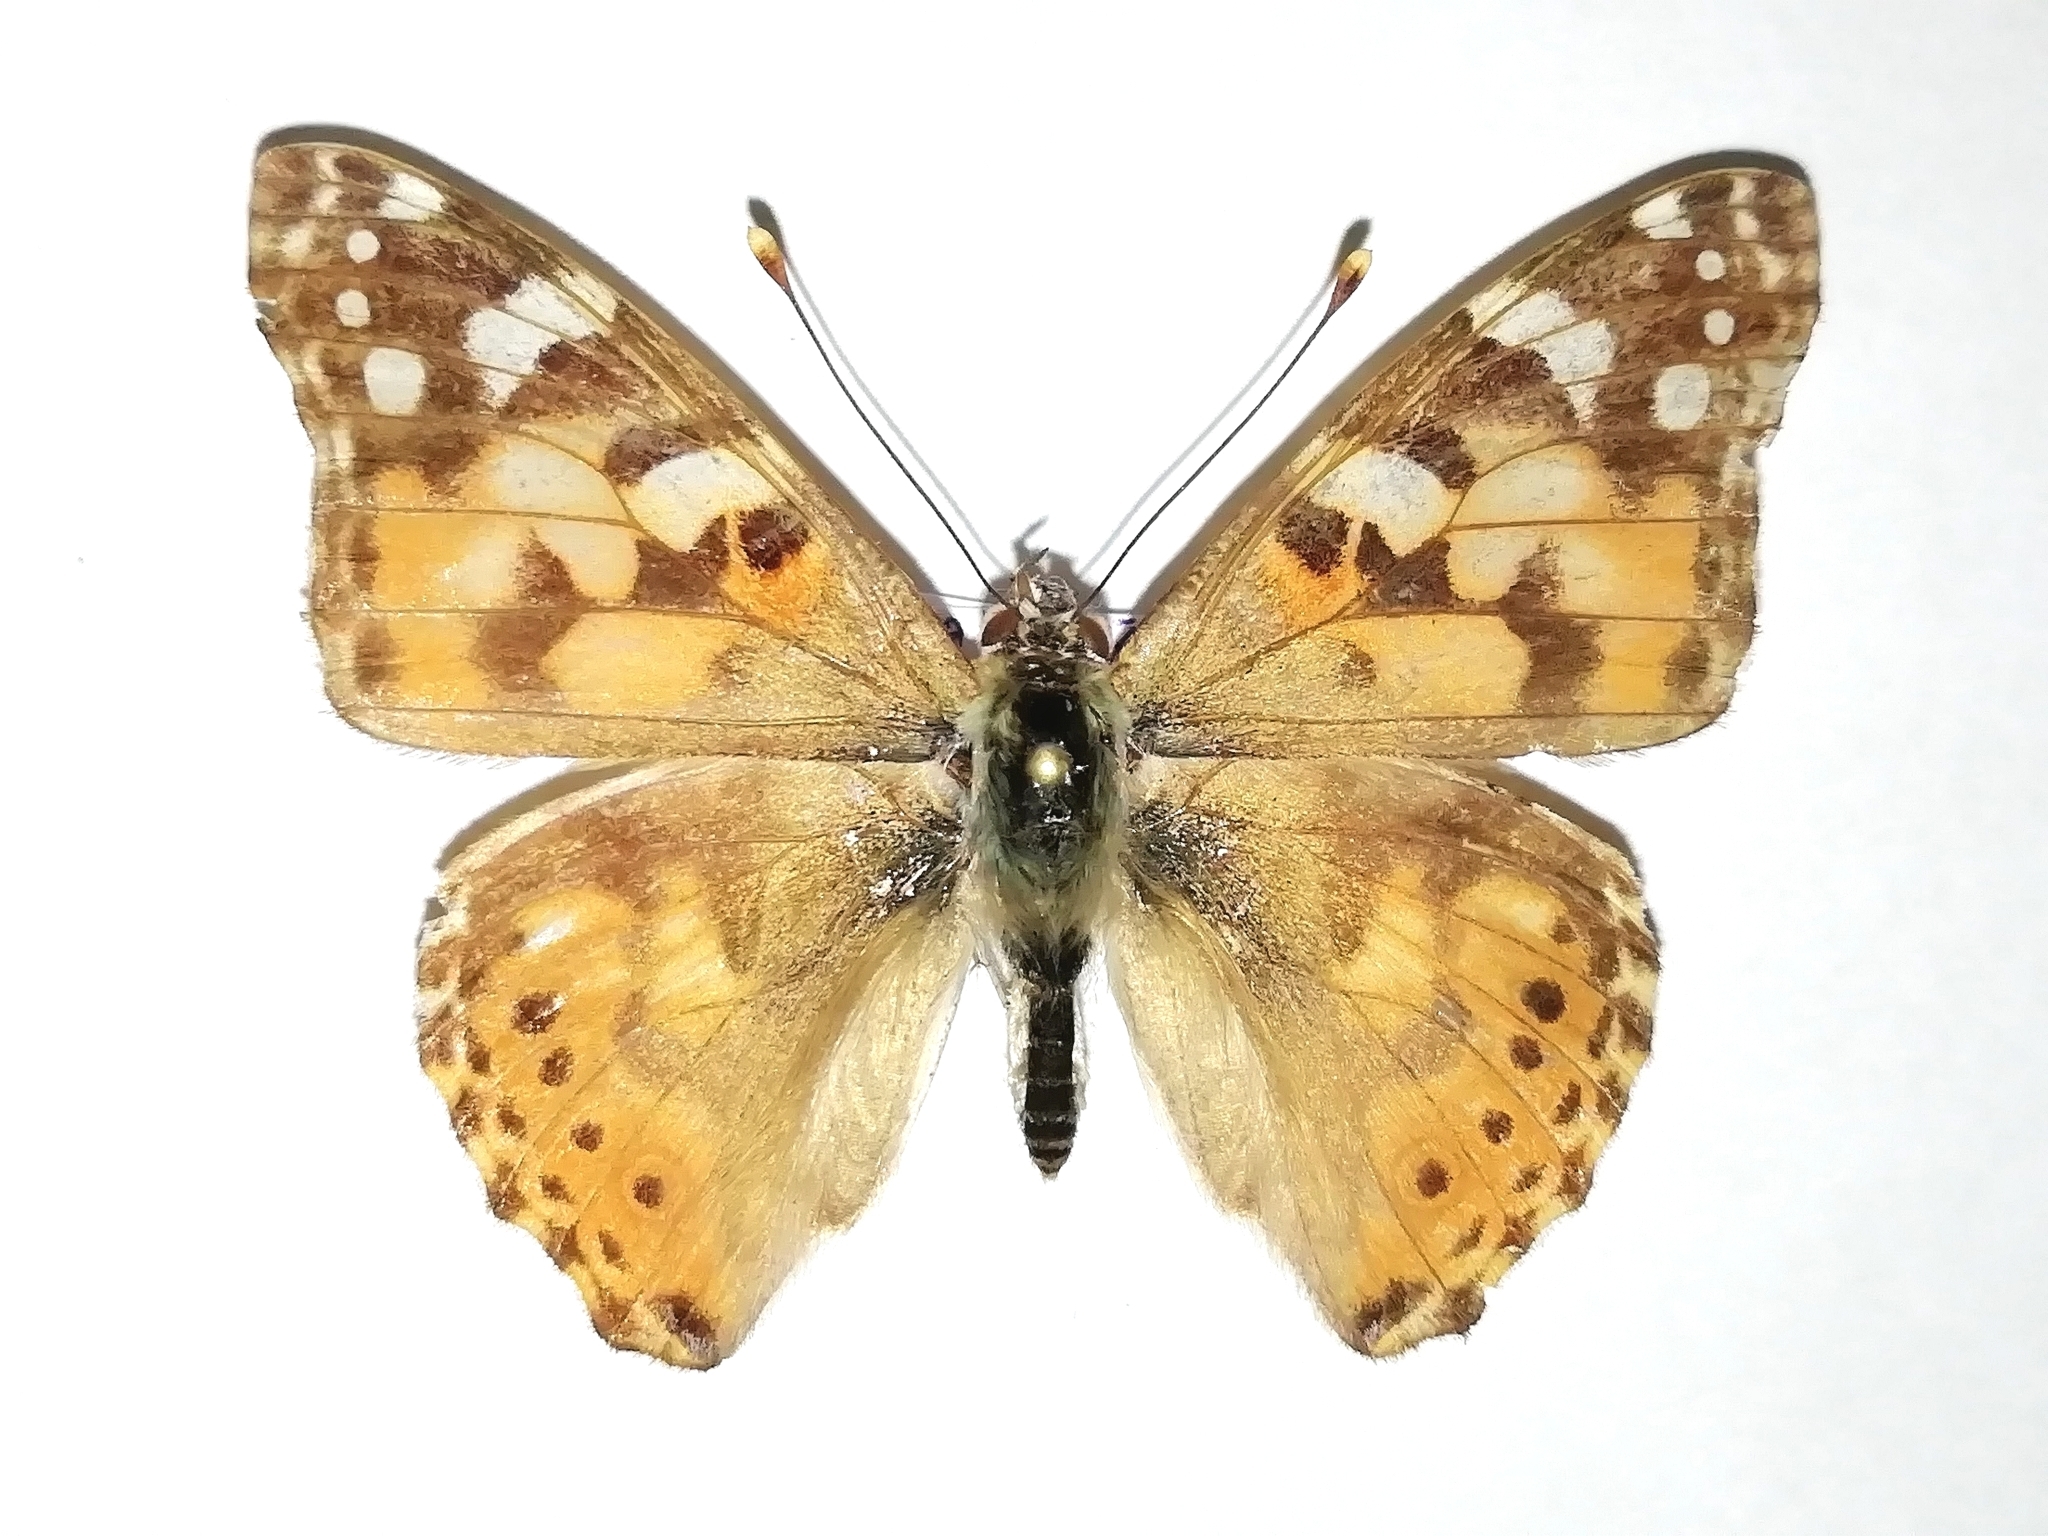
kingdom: Animalia
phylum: Arthropoda
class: Insecta
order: Lepidoptera
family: Nymphalidae
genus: Vanessa
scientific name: Vanessa cardui
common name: Painted lady
